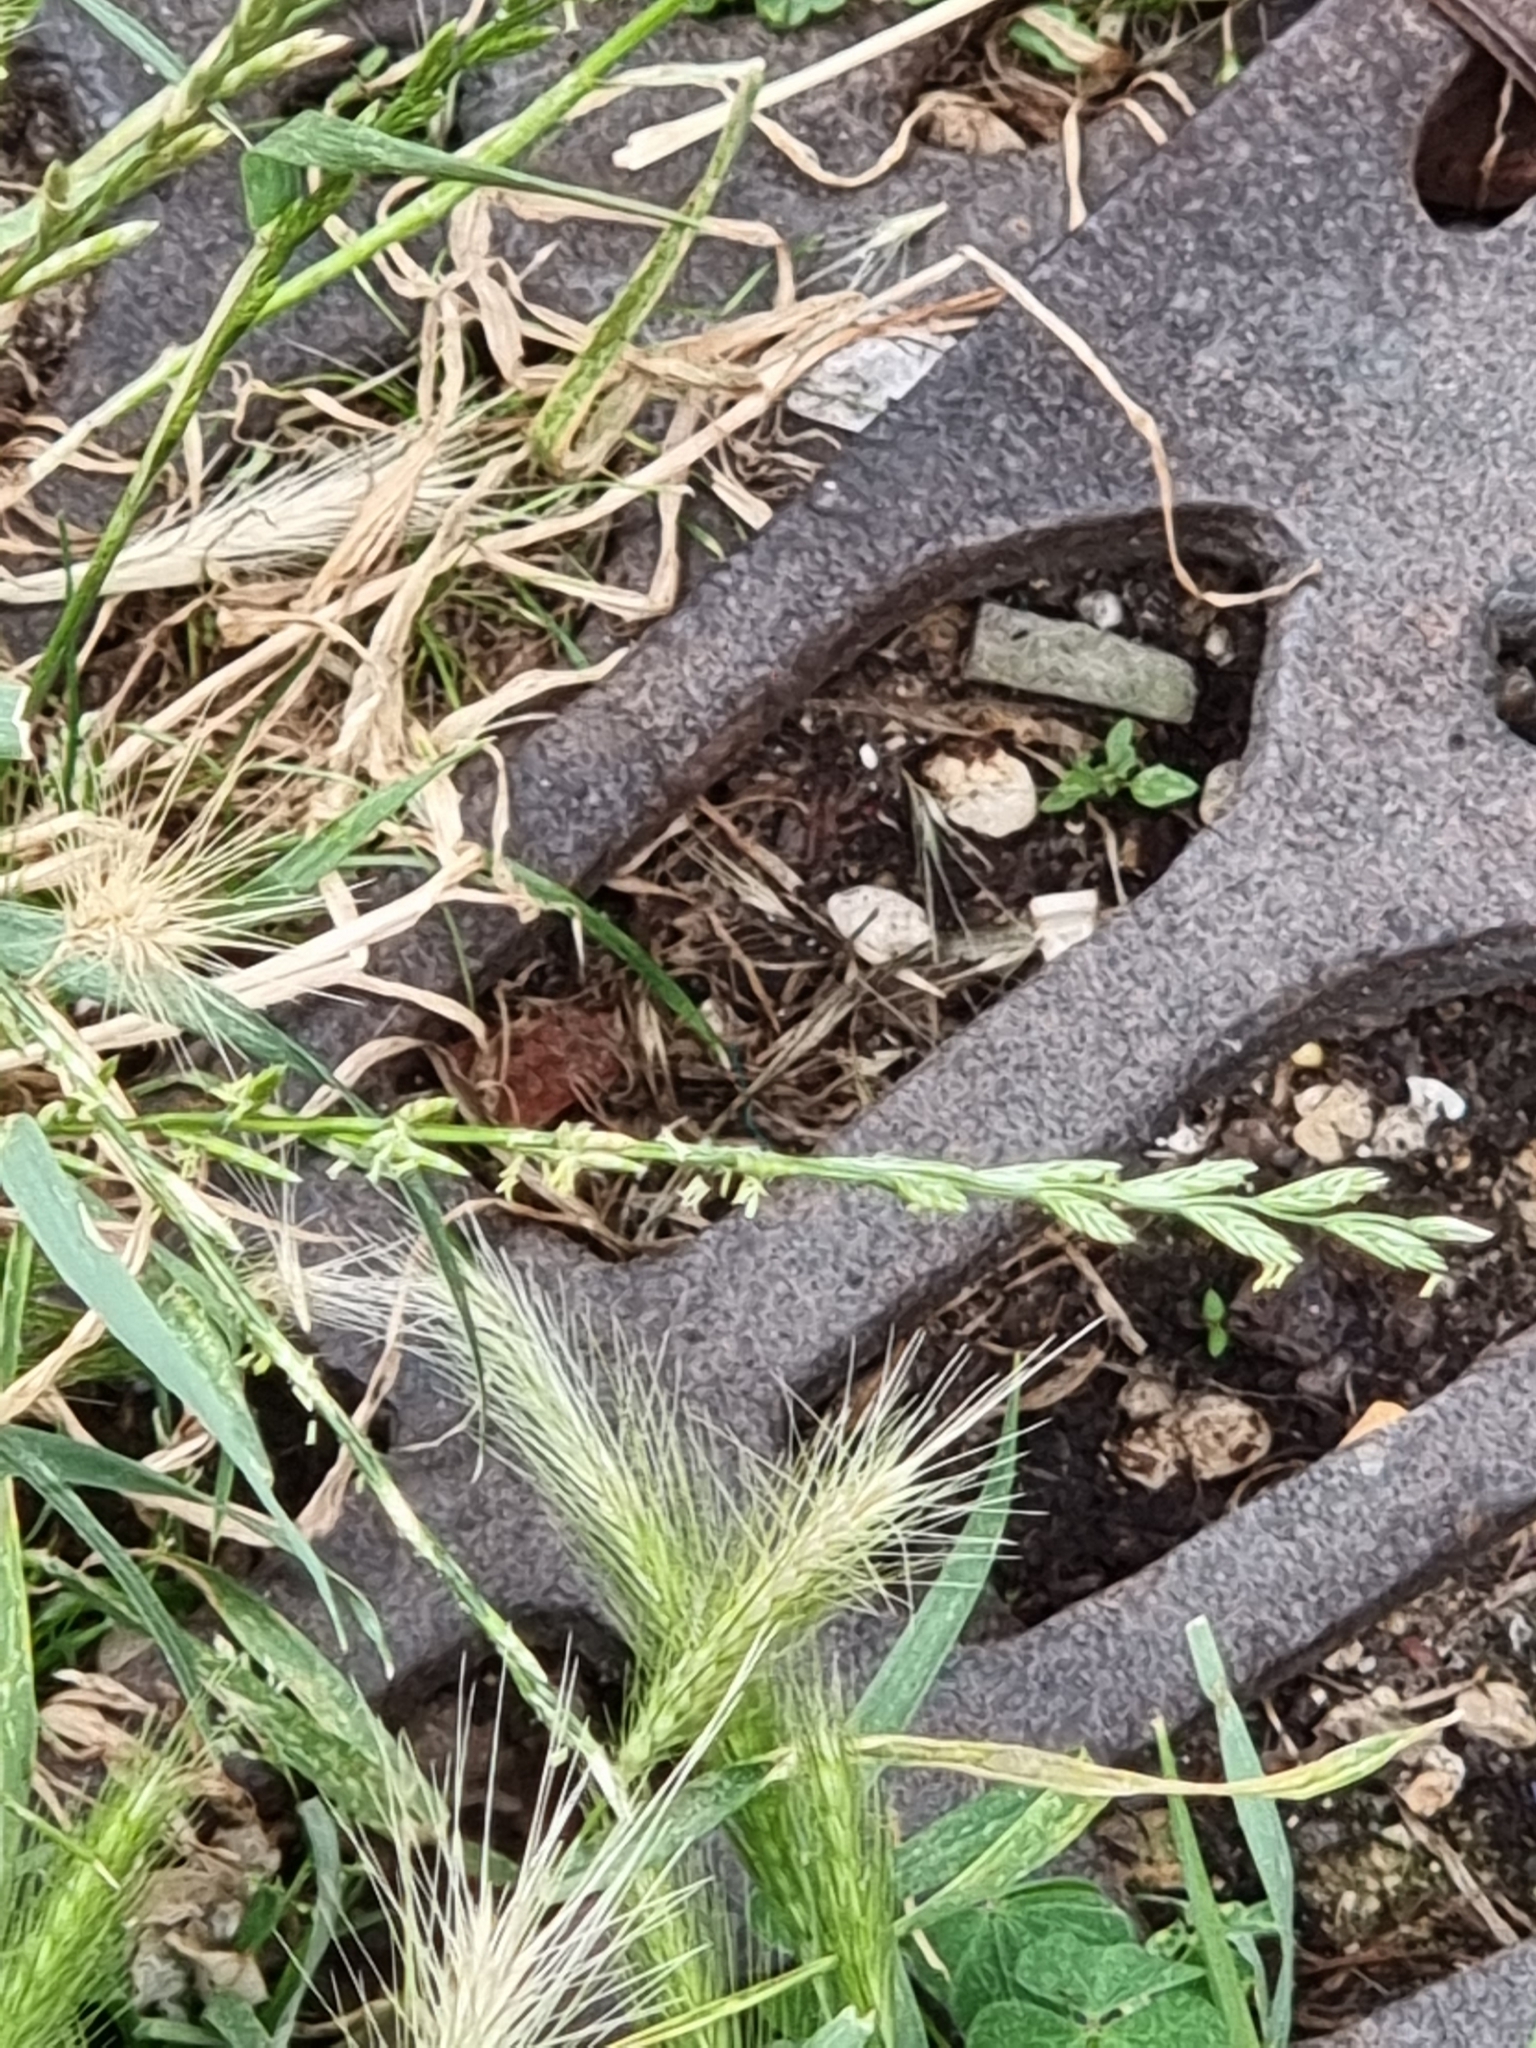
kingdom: Plantae
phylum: Tracheophyta
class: Liliopsida
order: Poales
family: Poaceae
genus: Lolium
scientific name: Lolium perenne
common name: Perennial ryegrass
